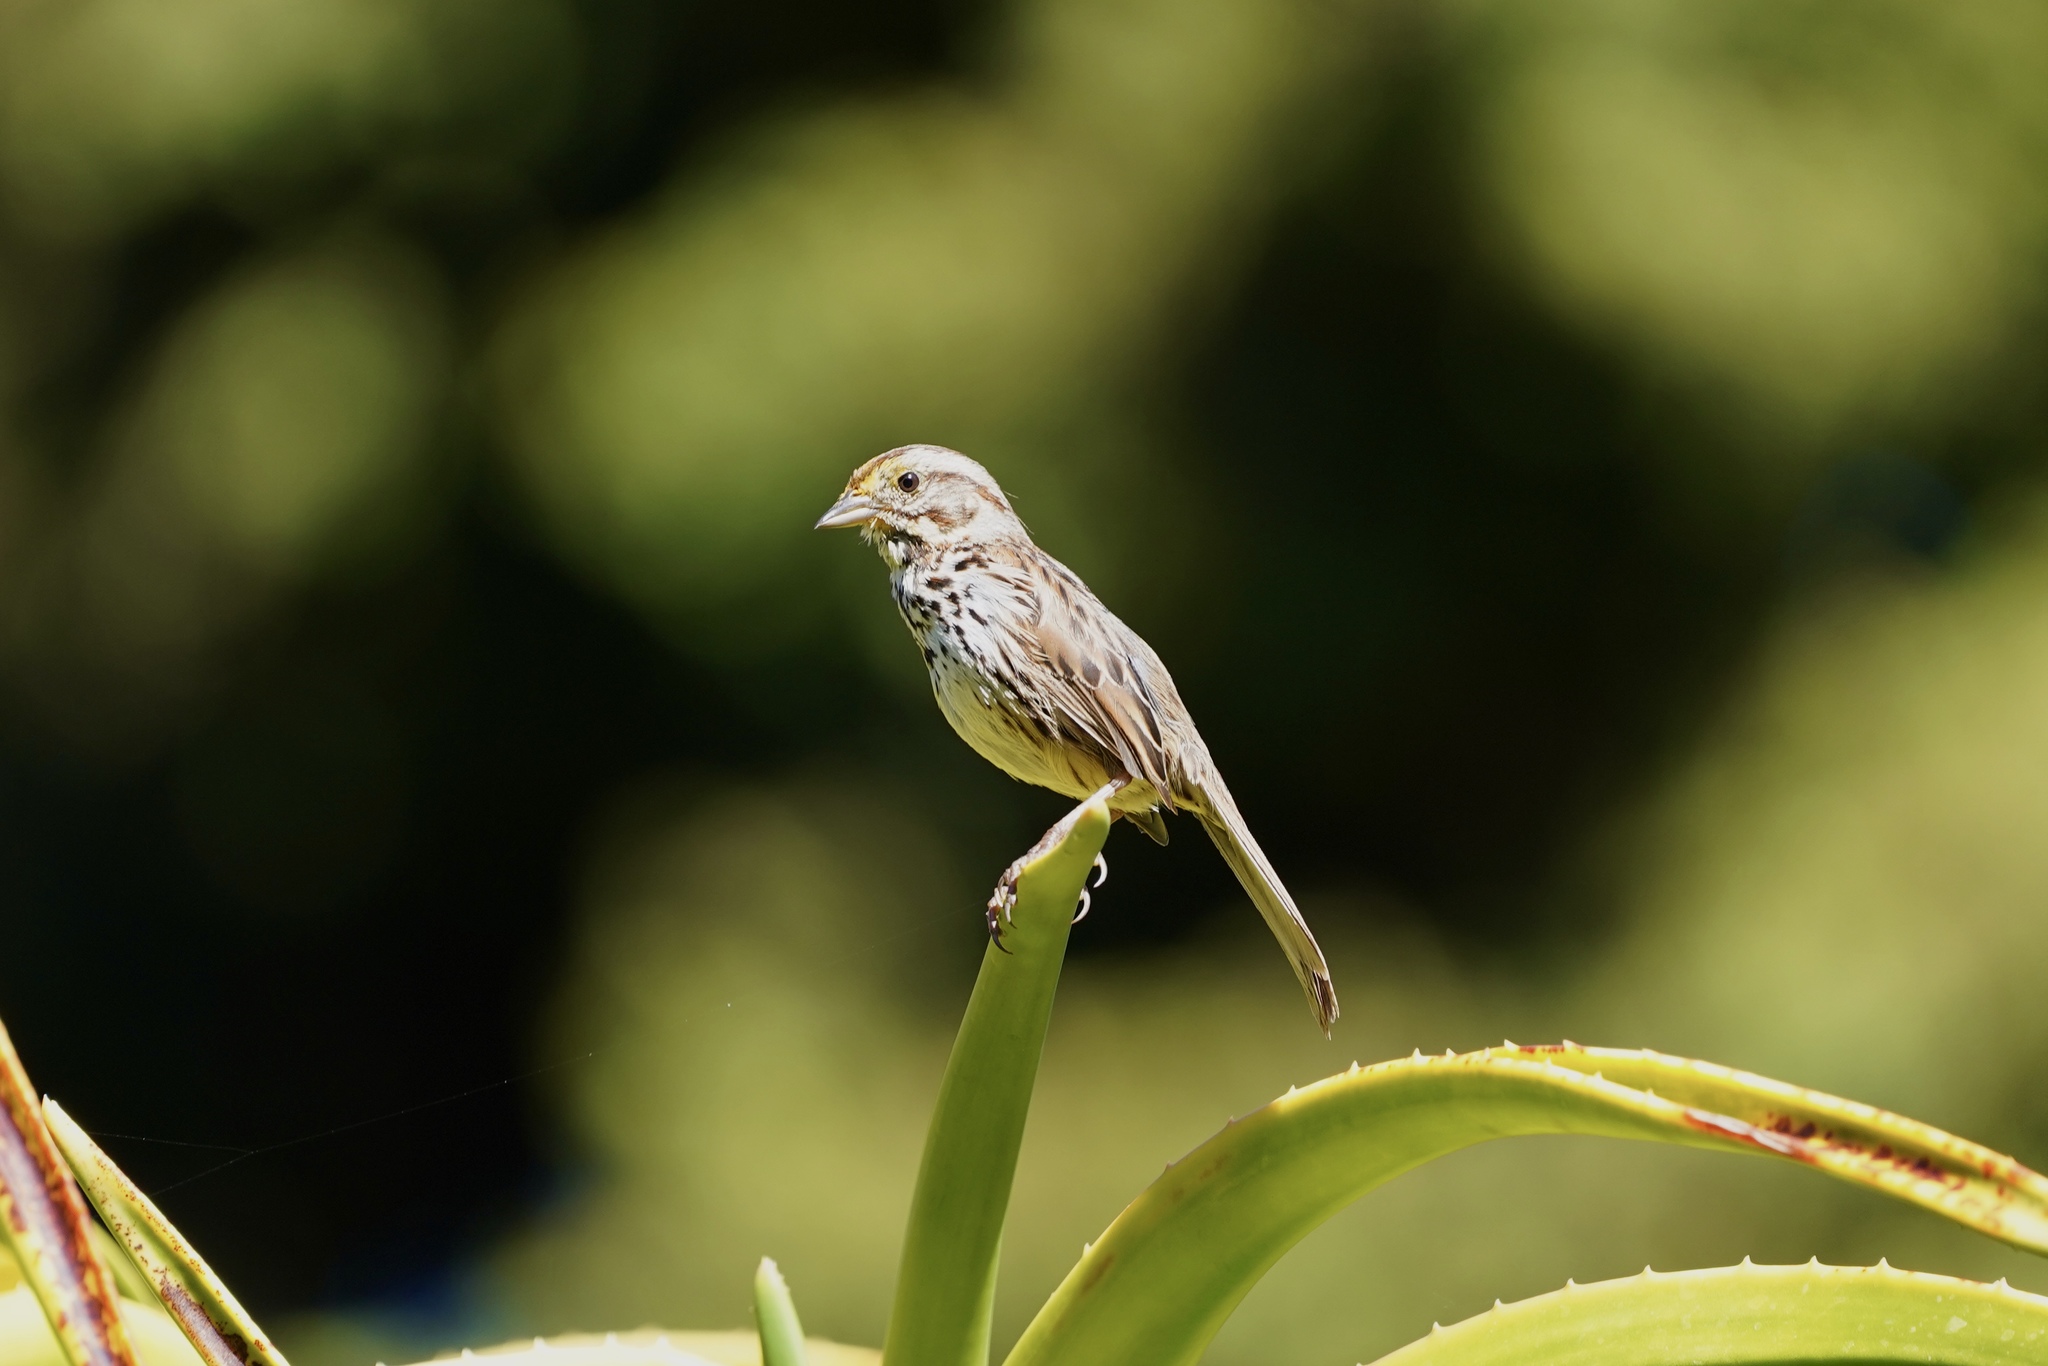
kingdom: Animalia
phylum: Chordata
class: Aves
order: Passeriformes
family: Passerellidae
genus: Melospiza
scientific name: Melospiza melodia
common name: Song sparrow
